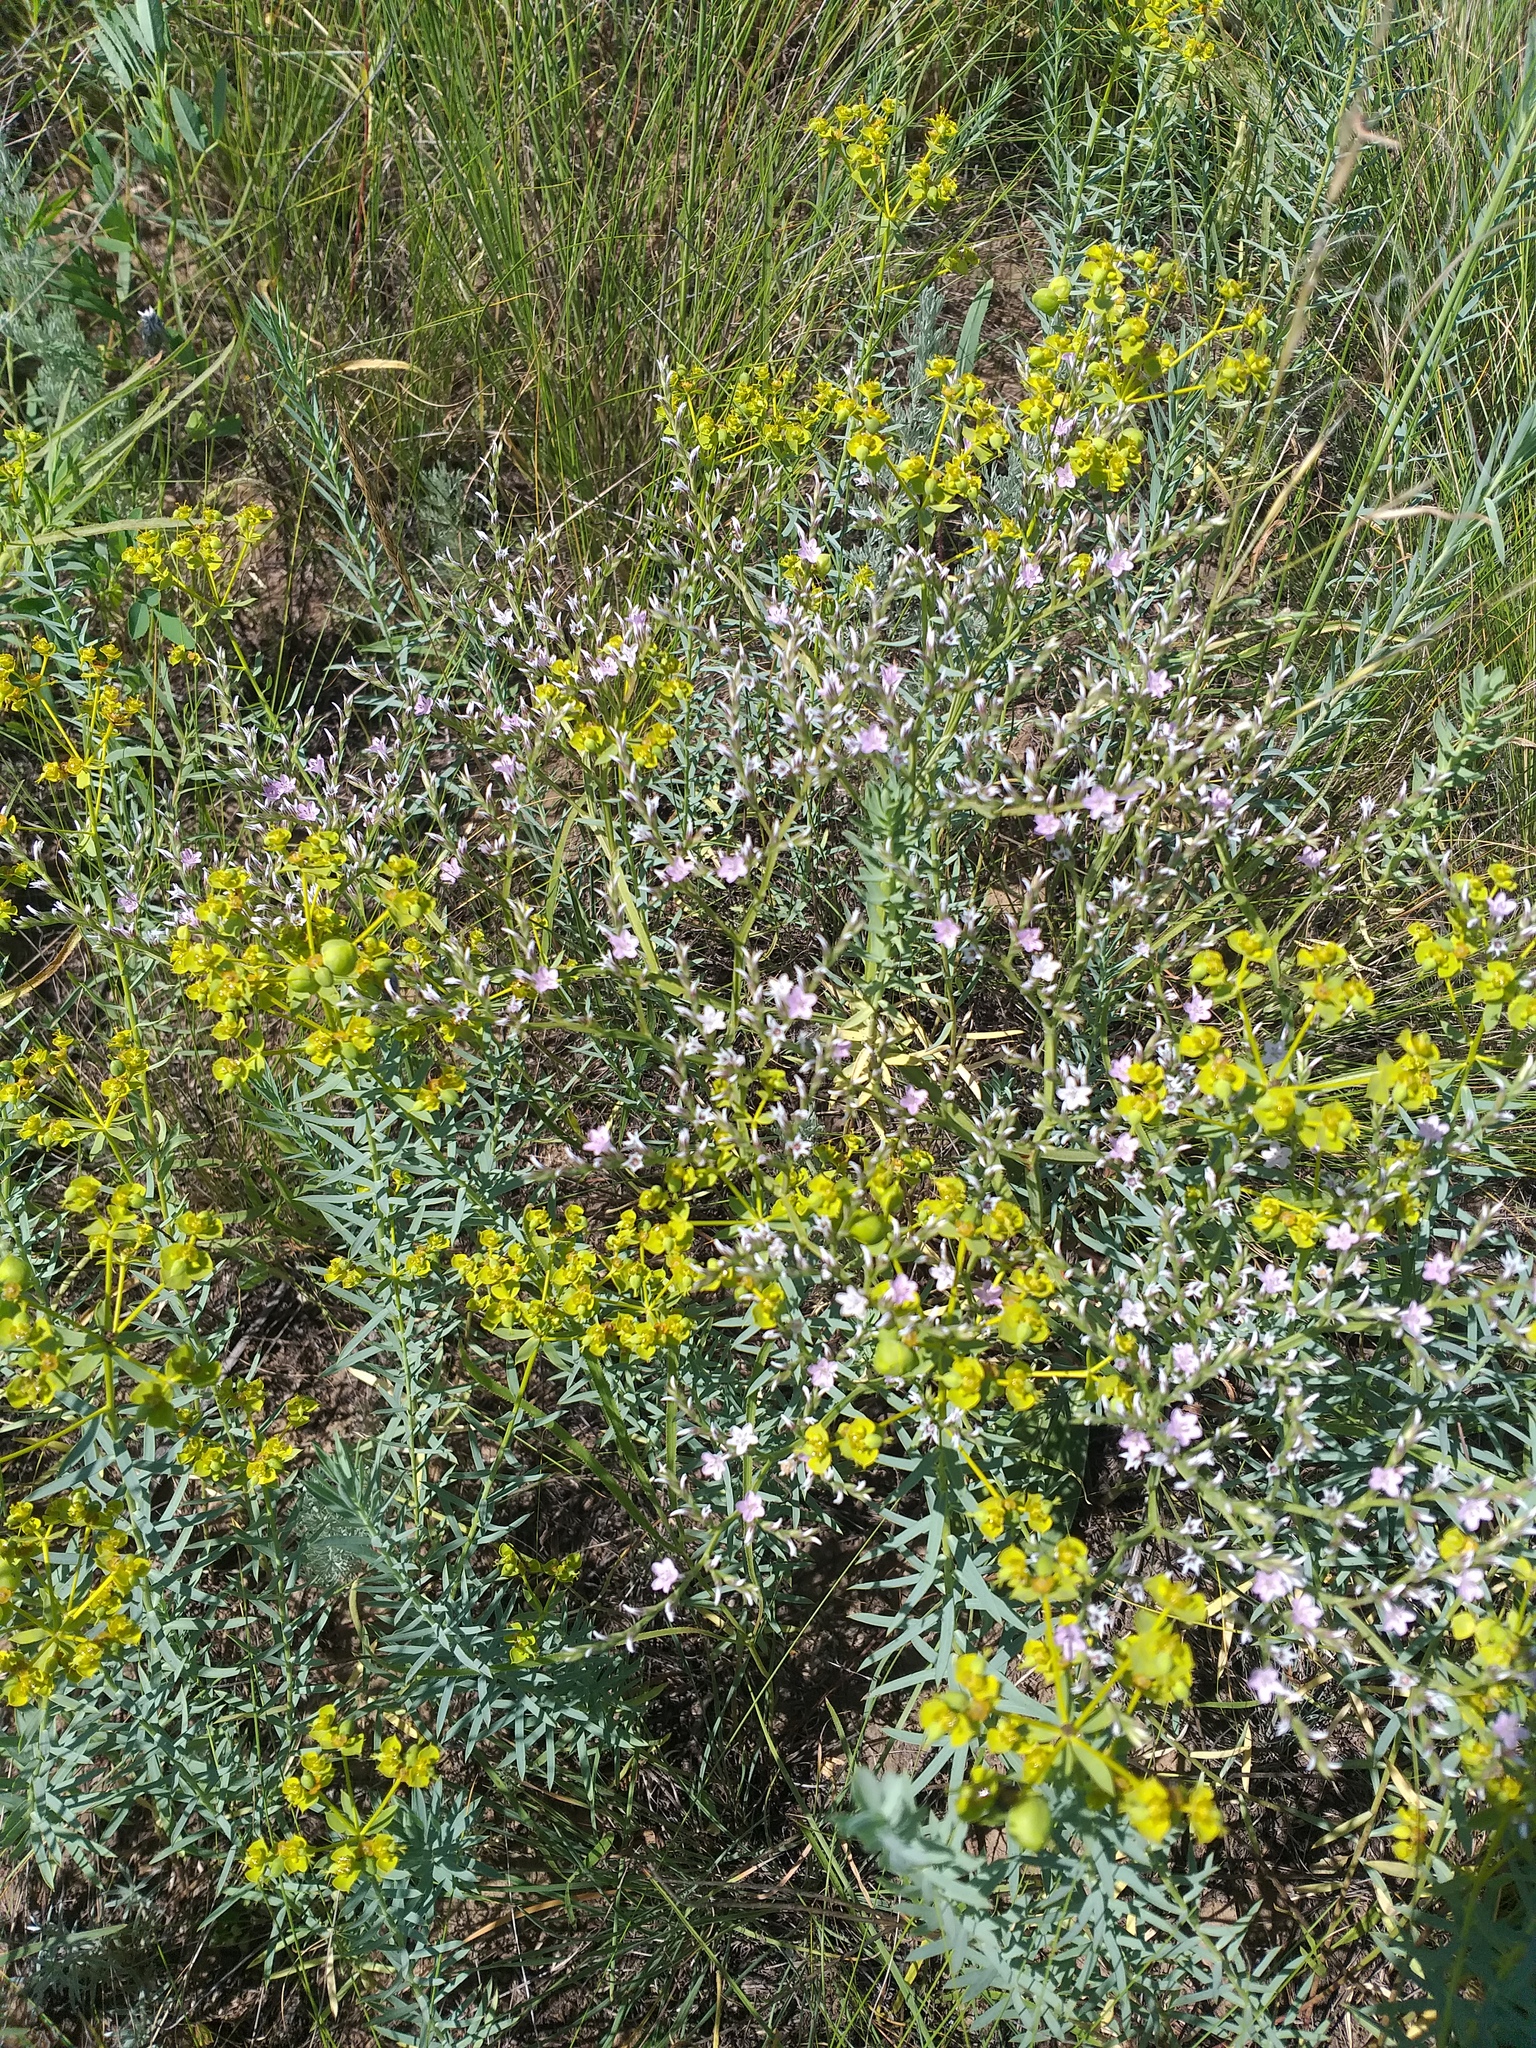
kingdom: Plantae
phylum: Tracheophyta
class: Magnoliopsida
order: Caryophyllales
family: Plumbaginaceae
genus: Goniolimon
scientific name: Goniolimon tataricum
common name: Statice
